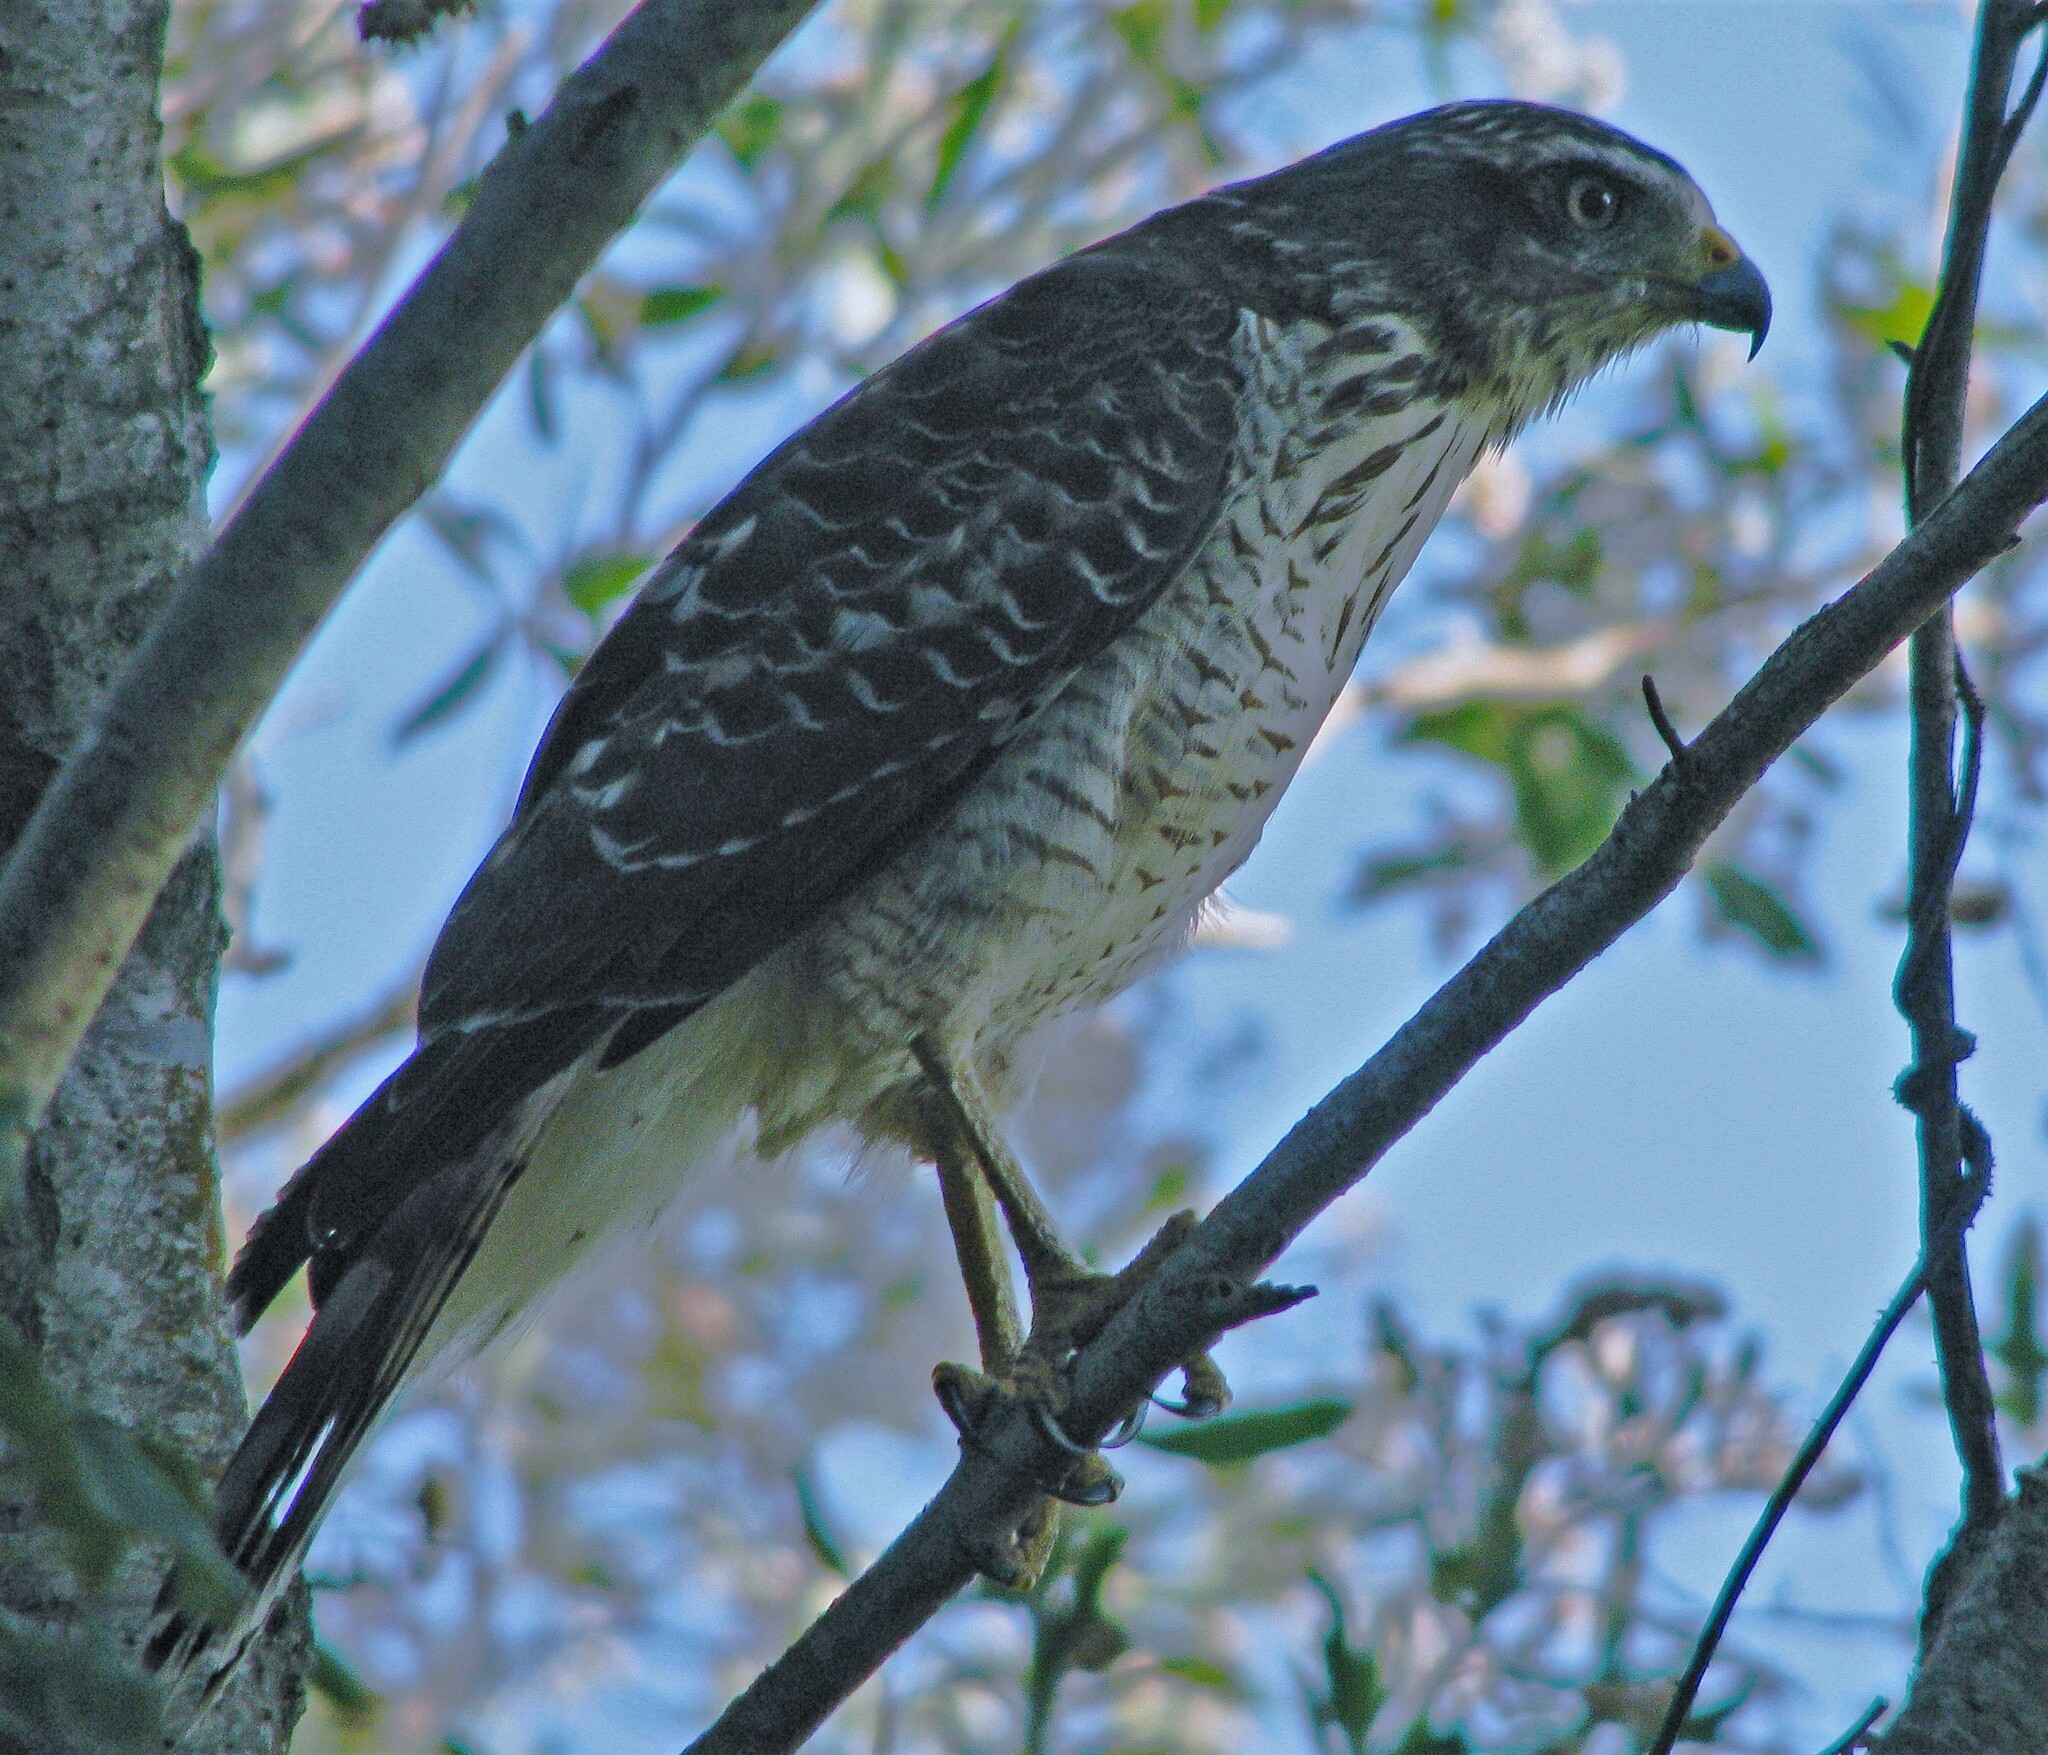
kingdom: Animalia
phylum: Chordata
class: Aves
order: Accipitriformes
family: Accipitridae
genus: Rupornis
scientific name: Rupornis magnirostris
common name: Roadside hawk
